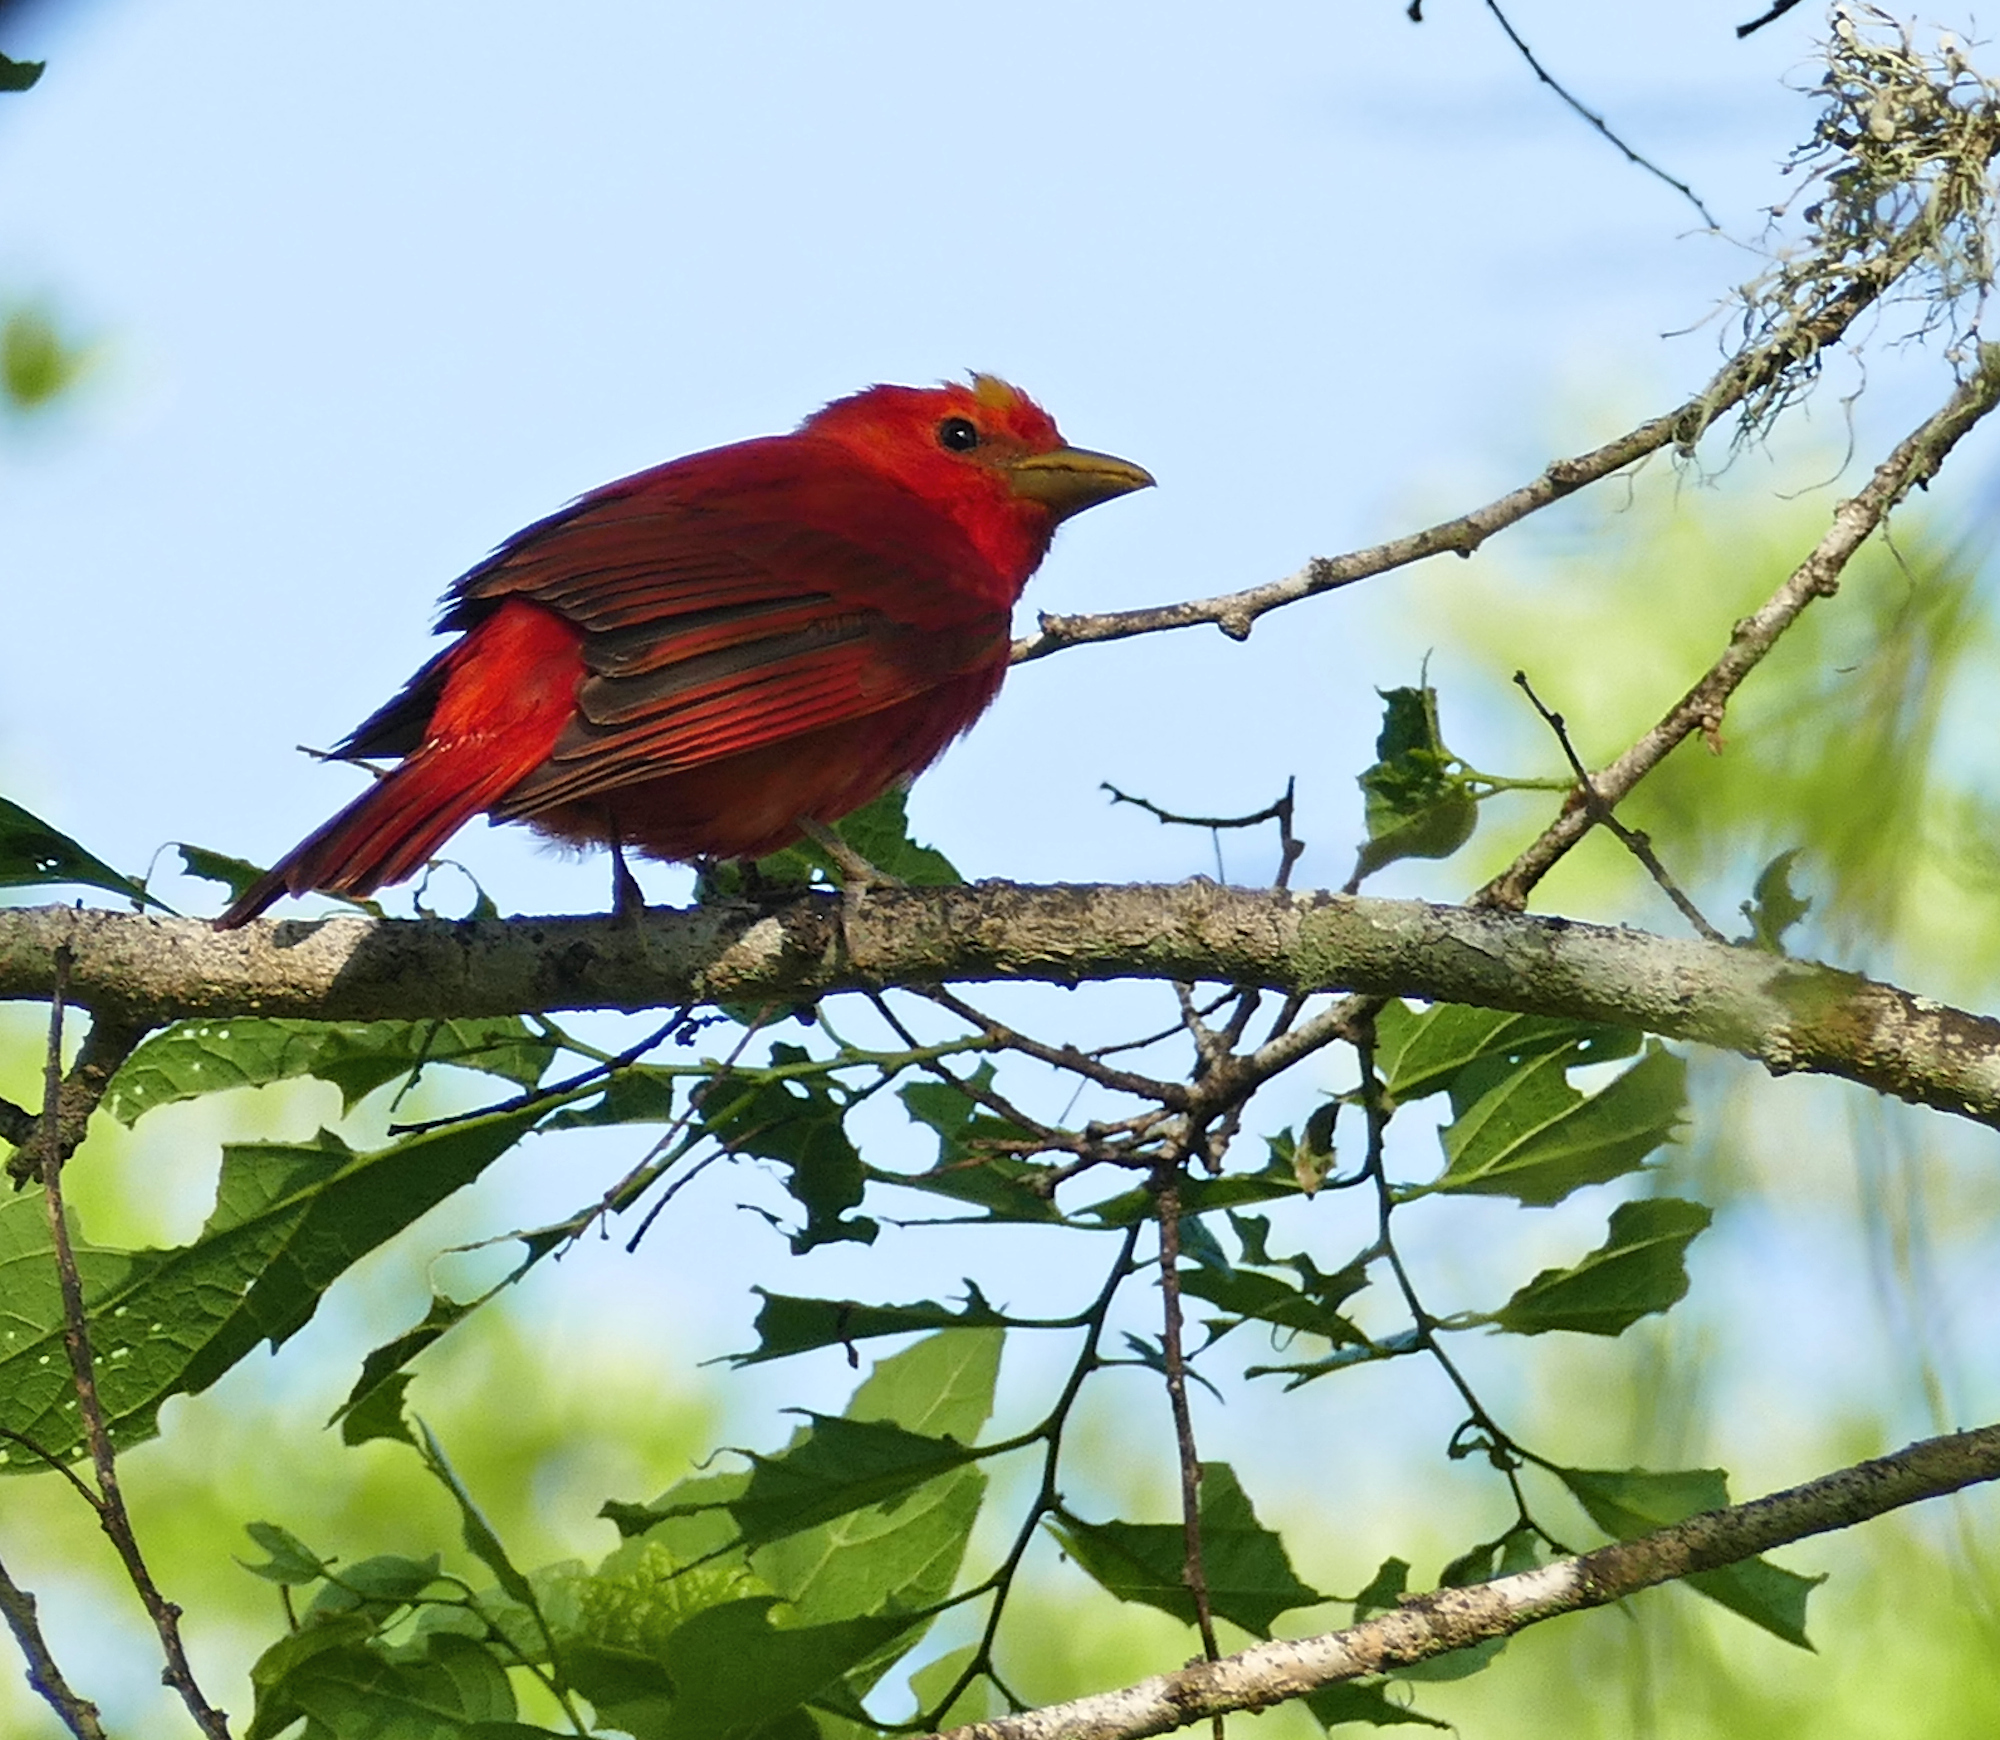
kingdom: Animalia
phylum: Chordata
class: Aves
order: Passeriformes
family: Cardinalidae
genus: Piranga
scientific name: Piranga rubra
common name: Summer tanager
